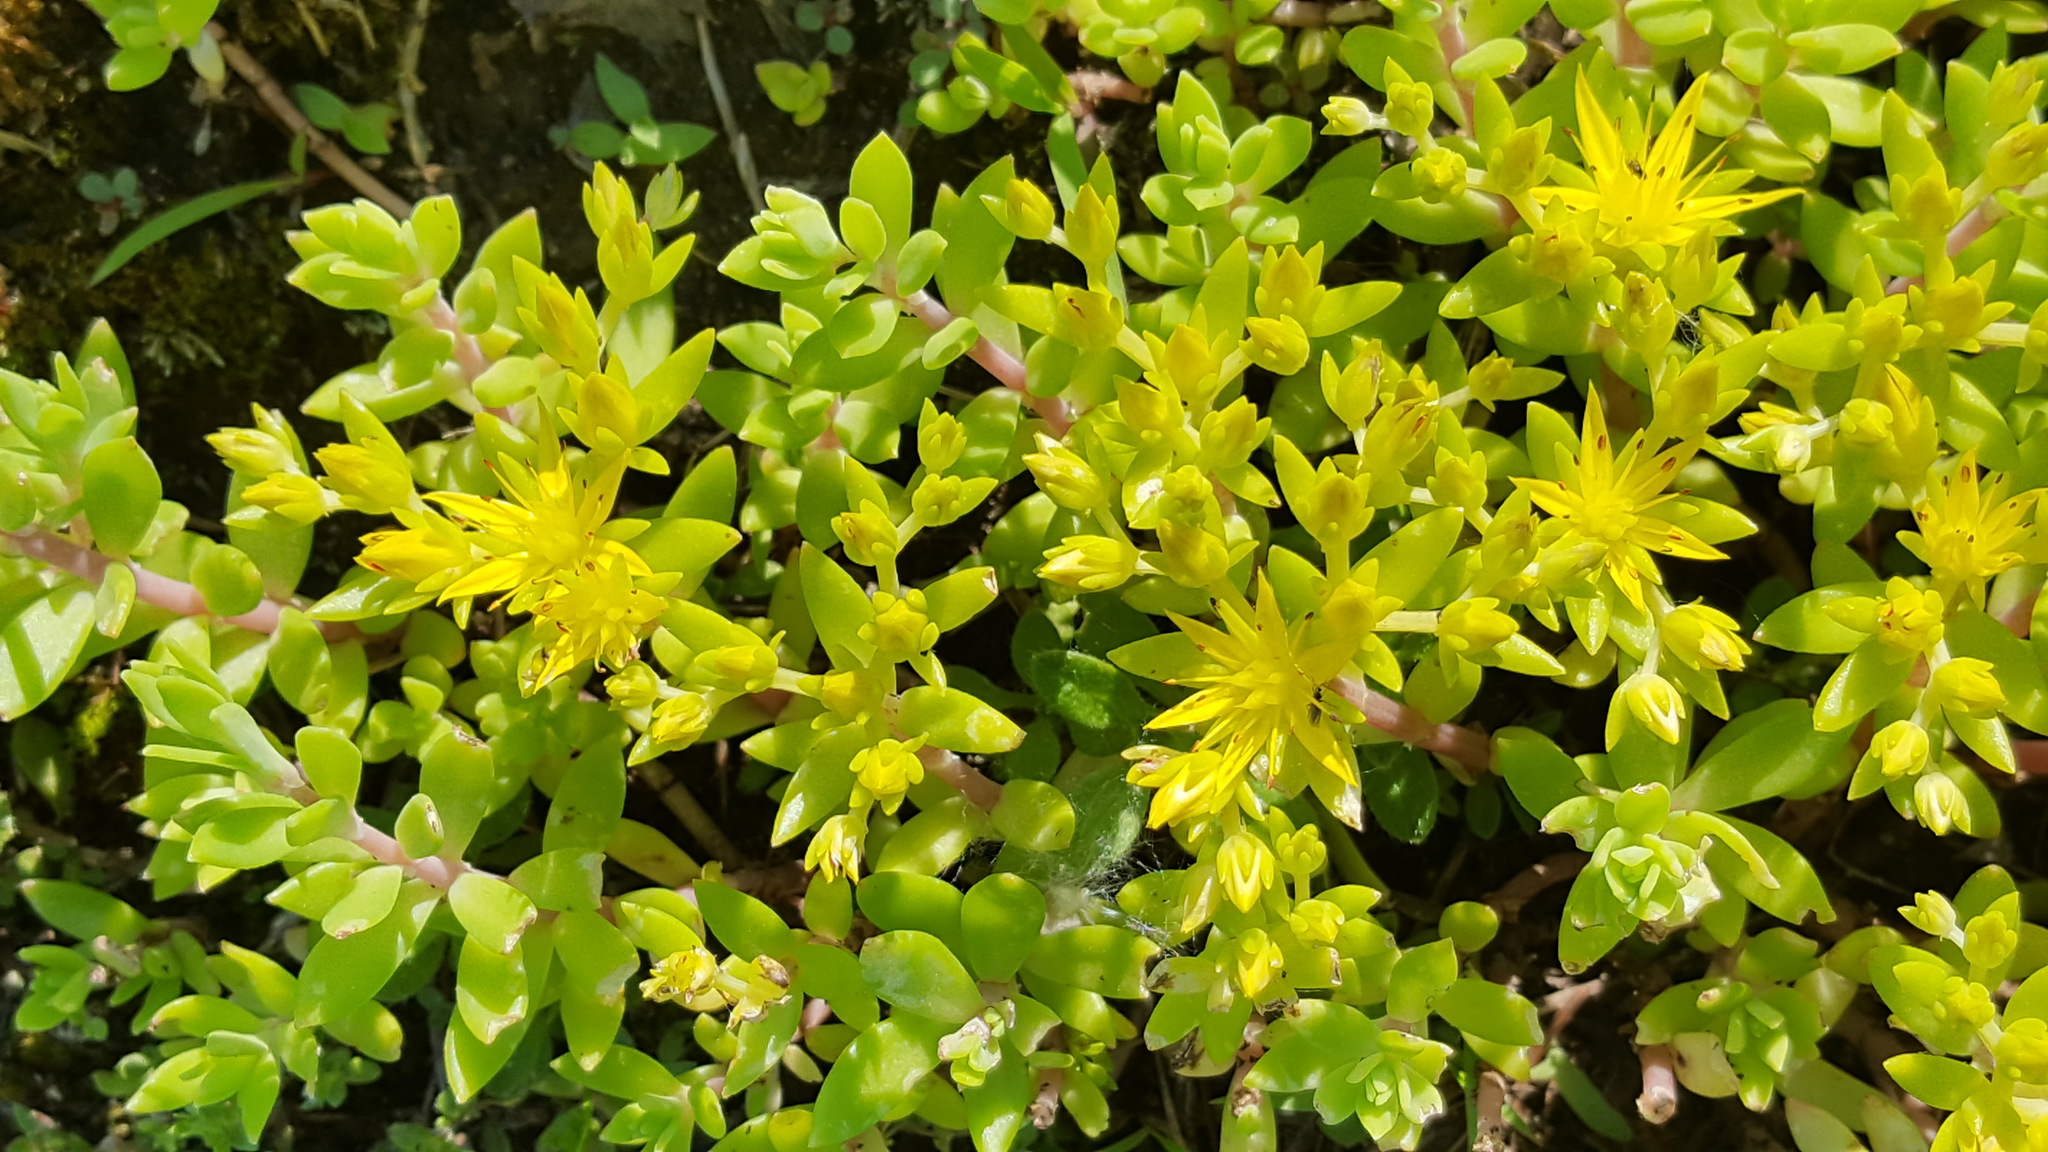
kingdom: Plantae
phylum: Tracheophyta
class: Magnoliopsida
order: Saxifragales
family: Crassulaceae
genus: Sedum
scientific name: Sedum sarmentosum
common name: Stringy stonecrop
